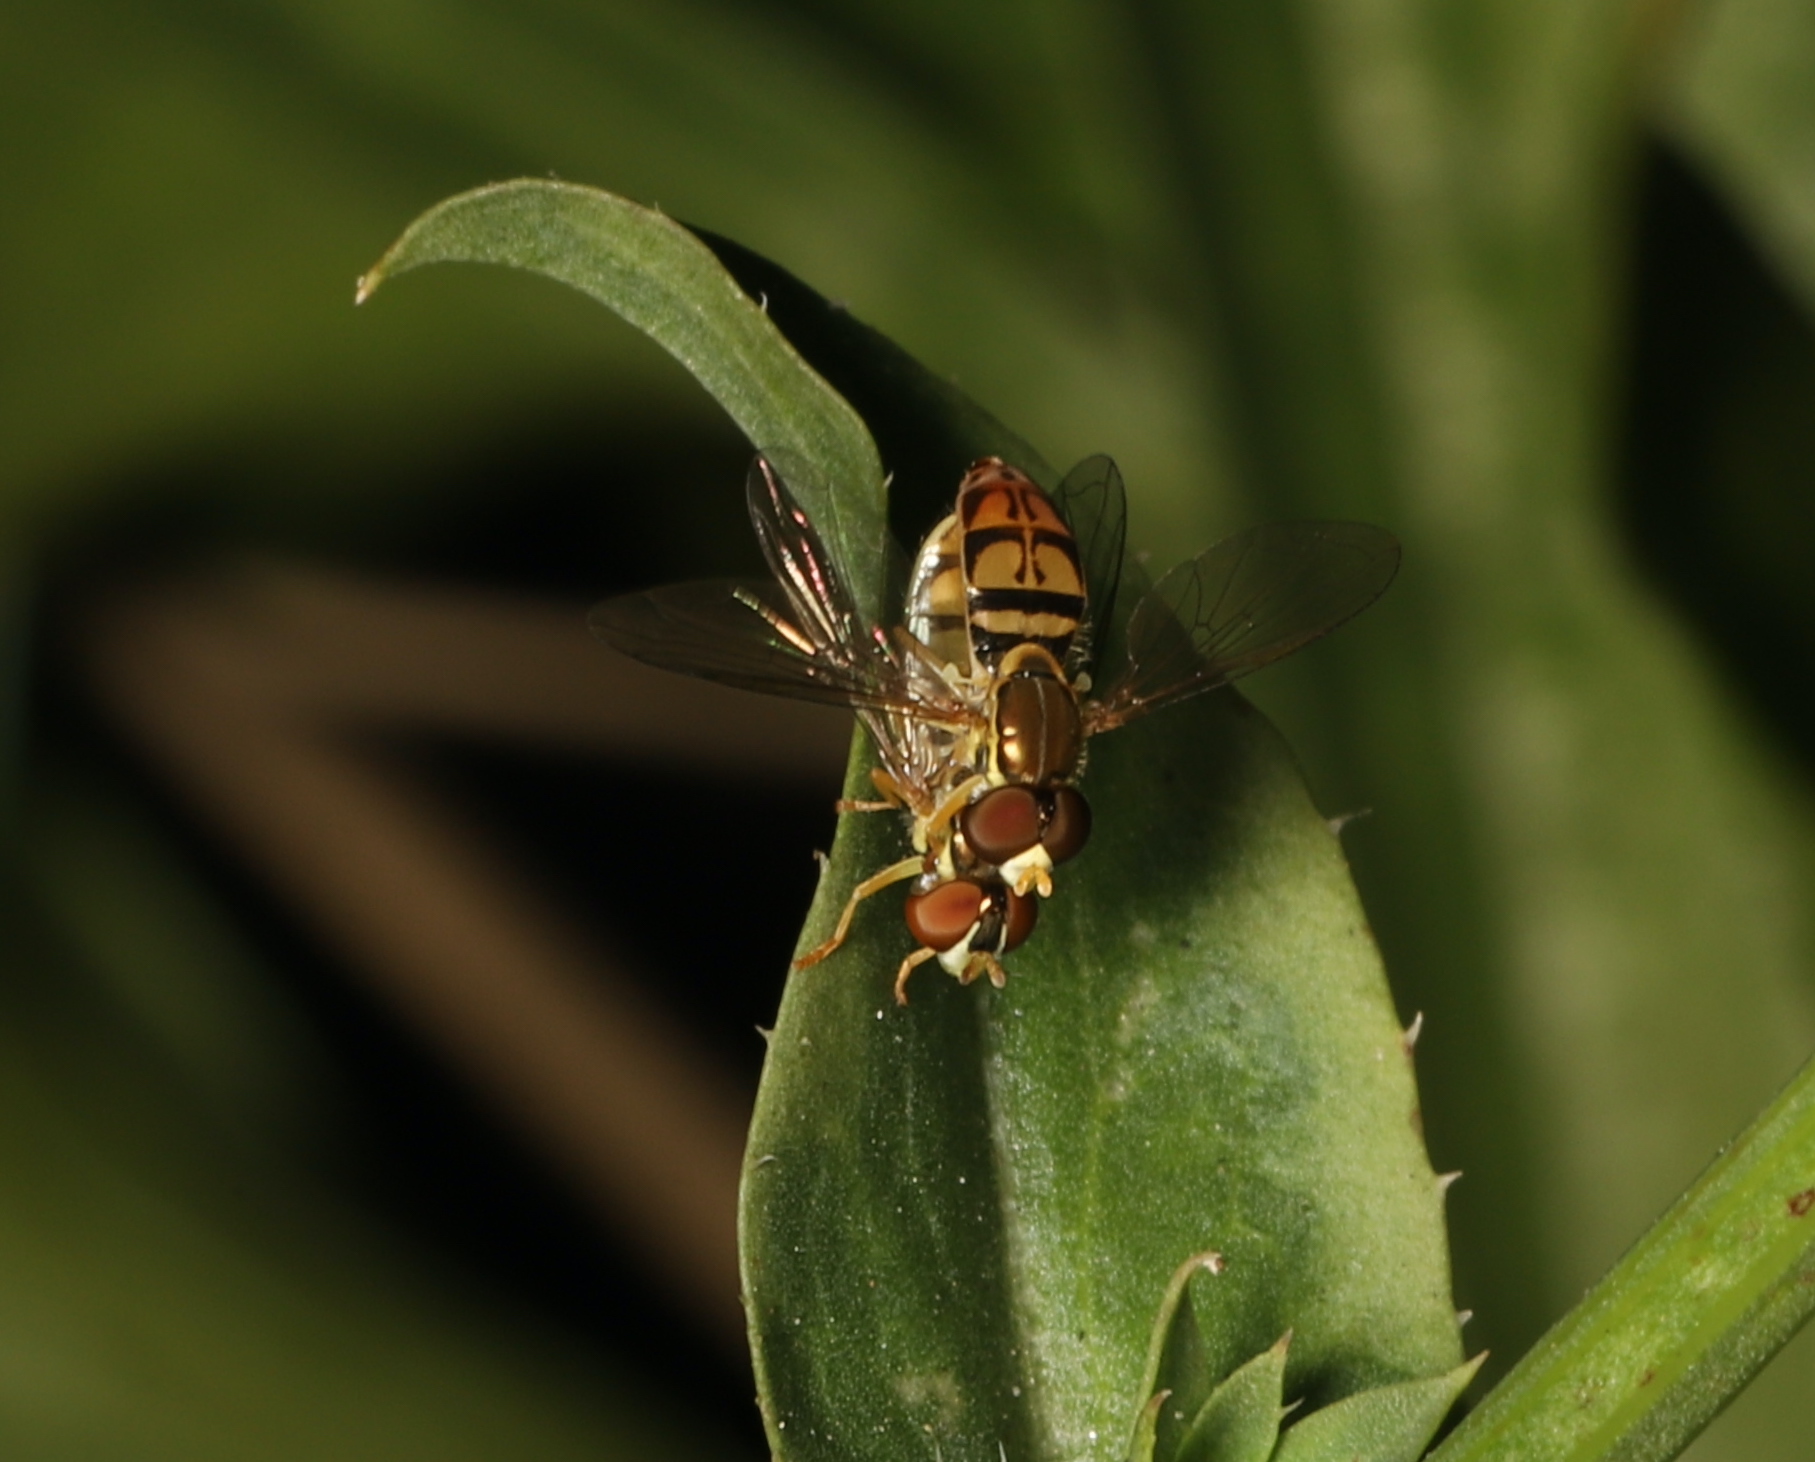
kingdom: Animalia
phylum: Arthropoda
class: Insecta
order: Diptera
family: Syrphidae
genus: Toxomerus
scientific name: Toxomerus marginatus
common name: Syrphid fly
